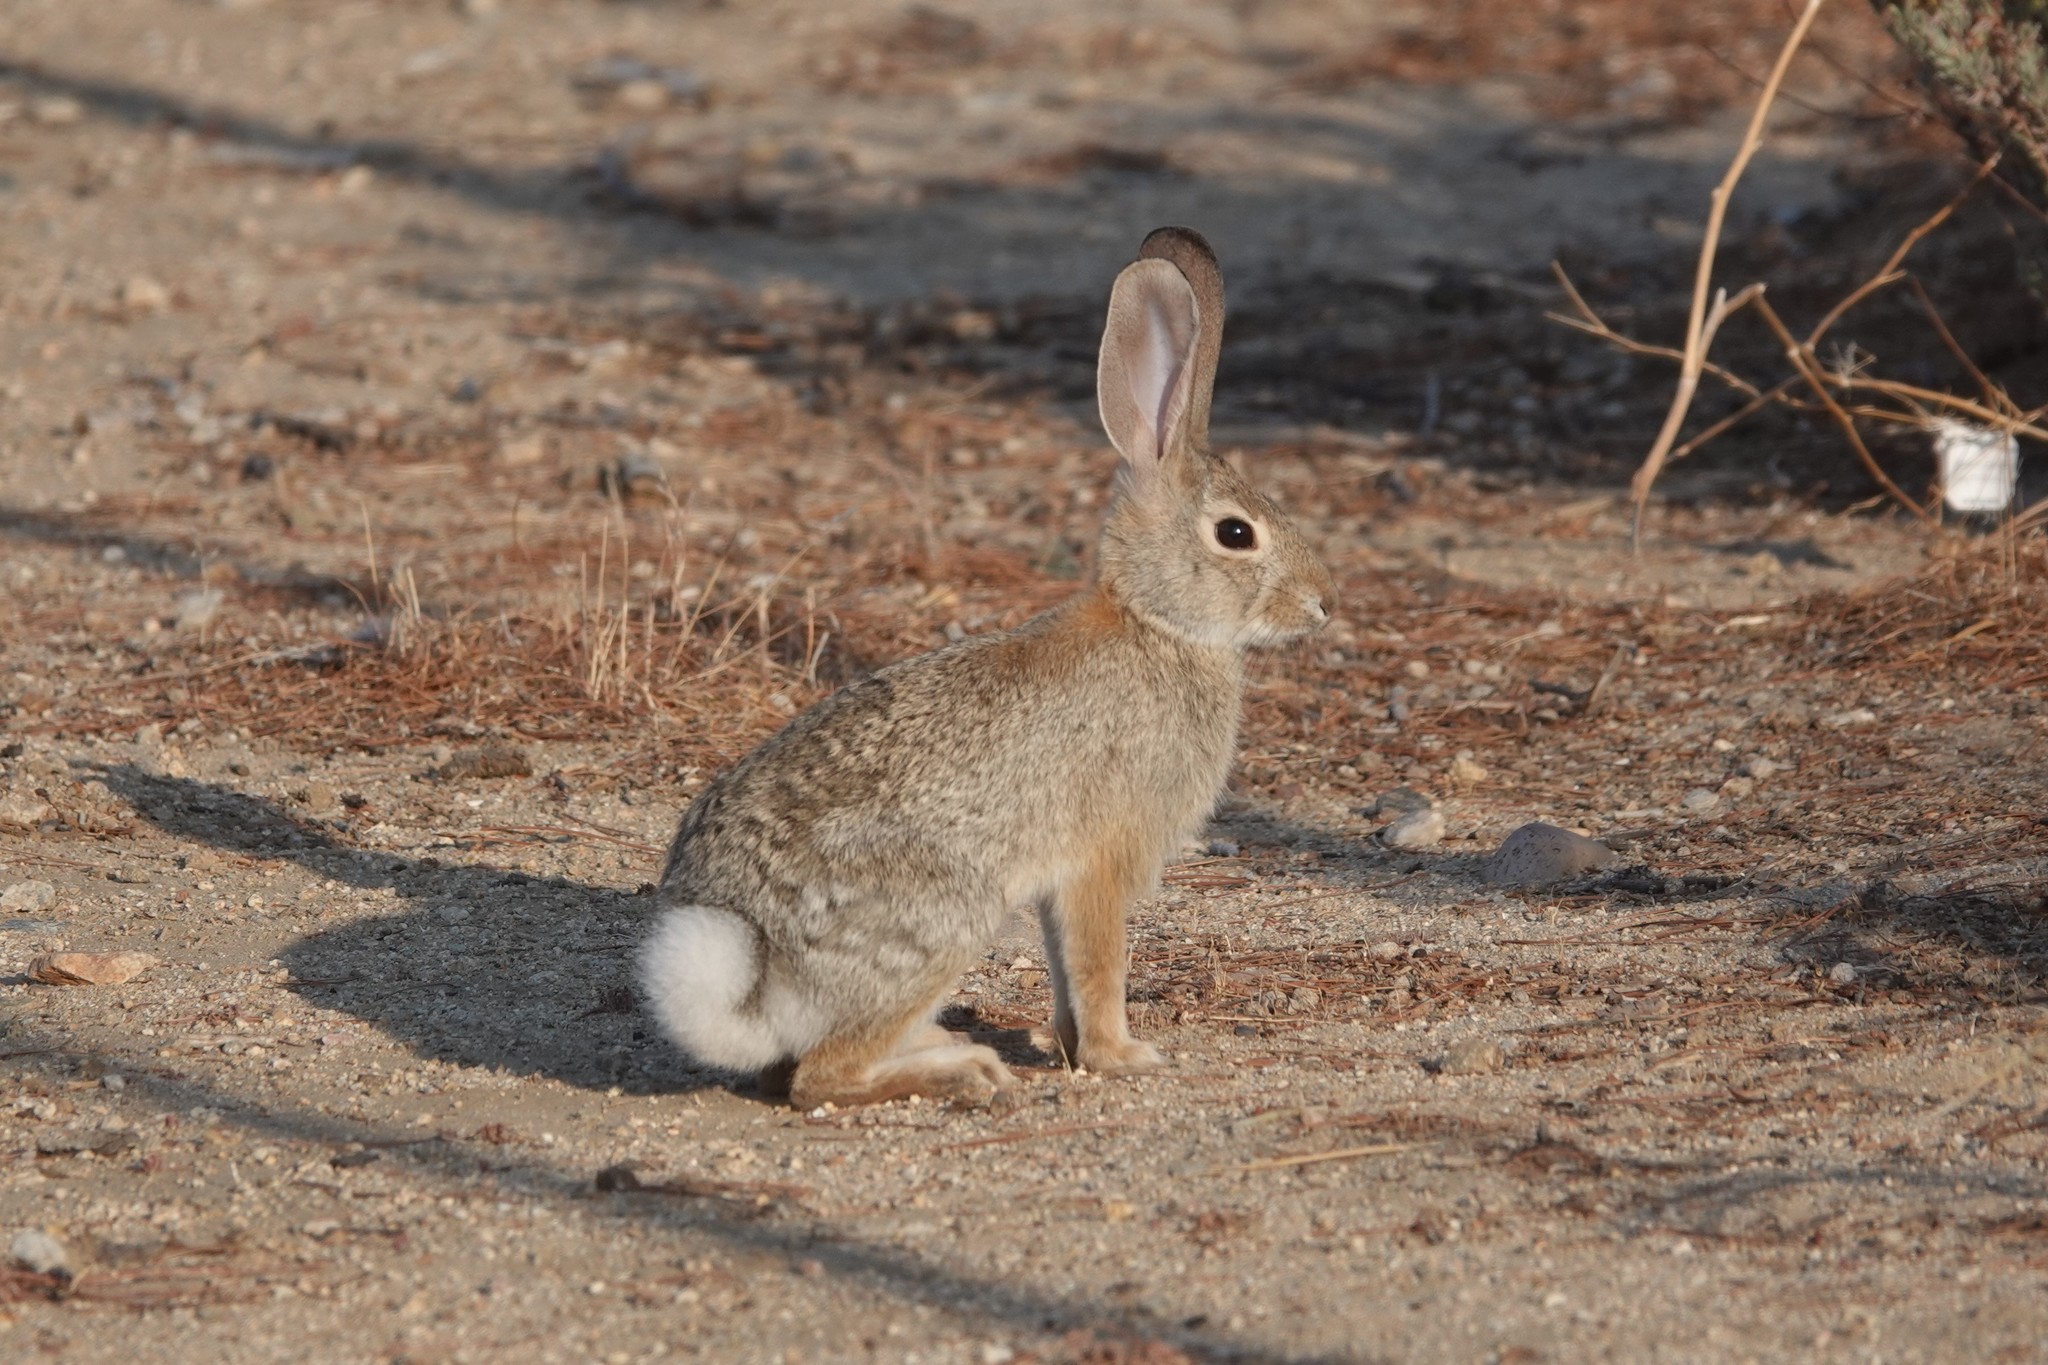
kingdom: Animalia
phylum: Chordata
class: Mammalia
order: Lagomorpha
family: Leporidae
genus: Sylvilagus
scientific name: Sylvilagus audubonii
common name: Desert cottontail
